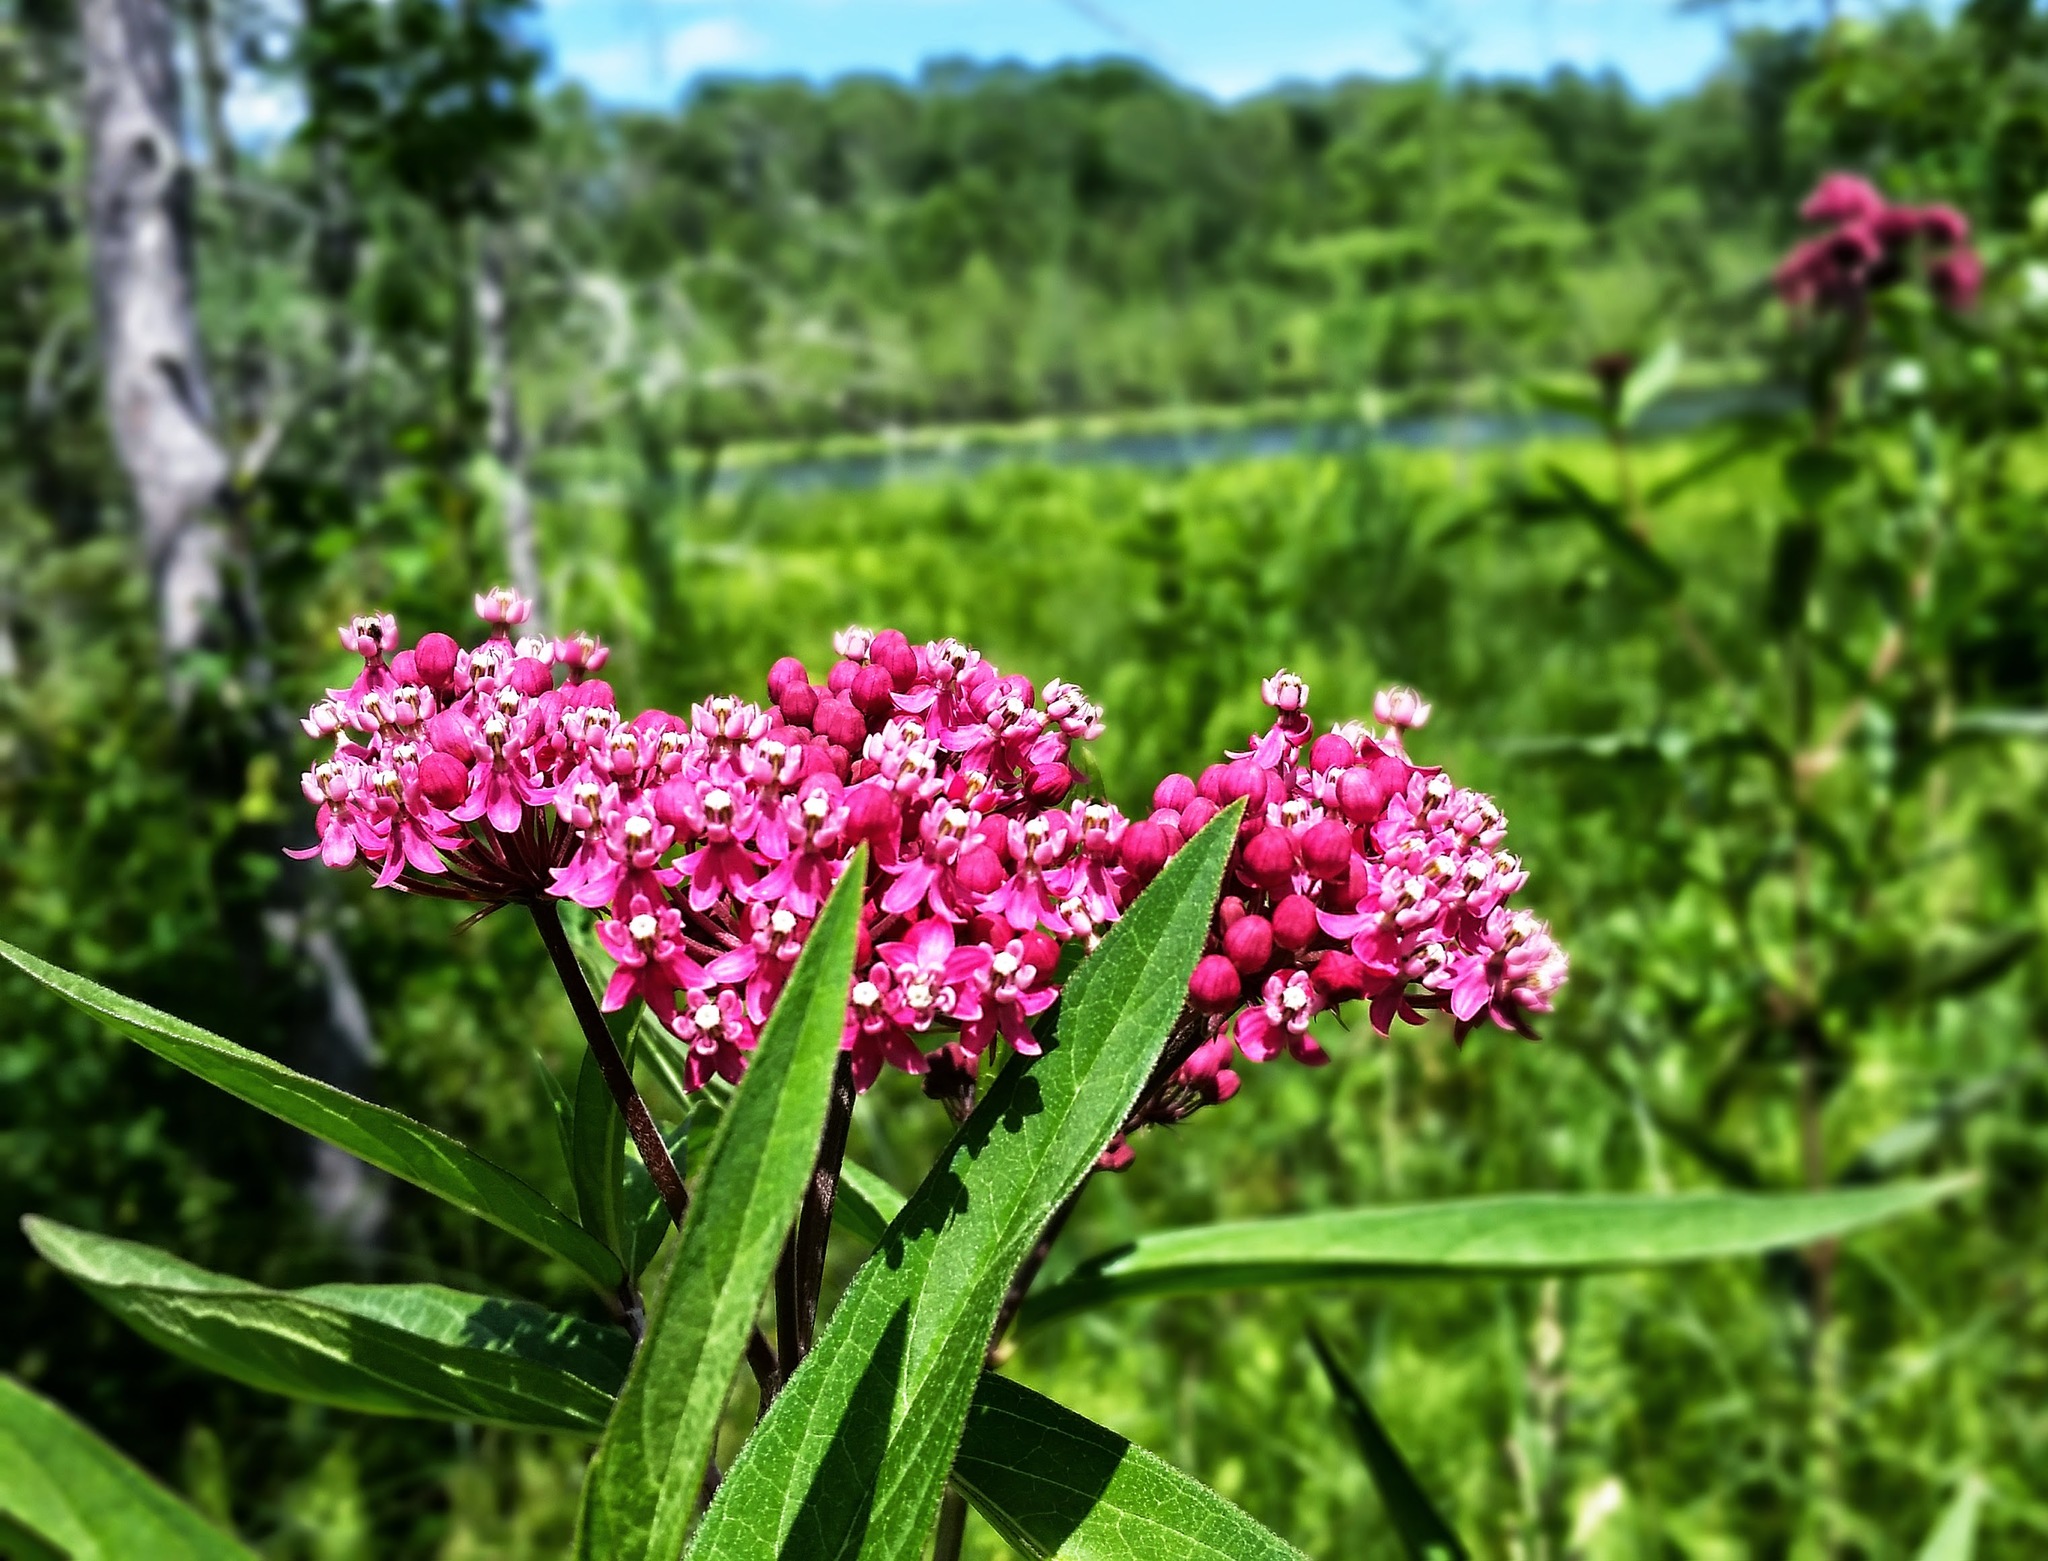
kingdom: Plantae
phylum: Tracheophyta
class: Magnoliopsida
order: Gentianales
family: Apocynaceae
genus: Asclepias
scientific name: Asclepias incarnata
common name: Swamp milkweed
